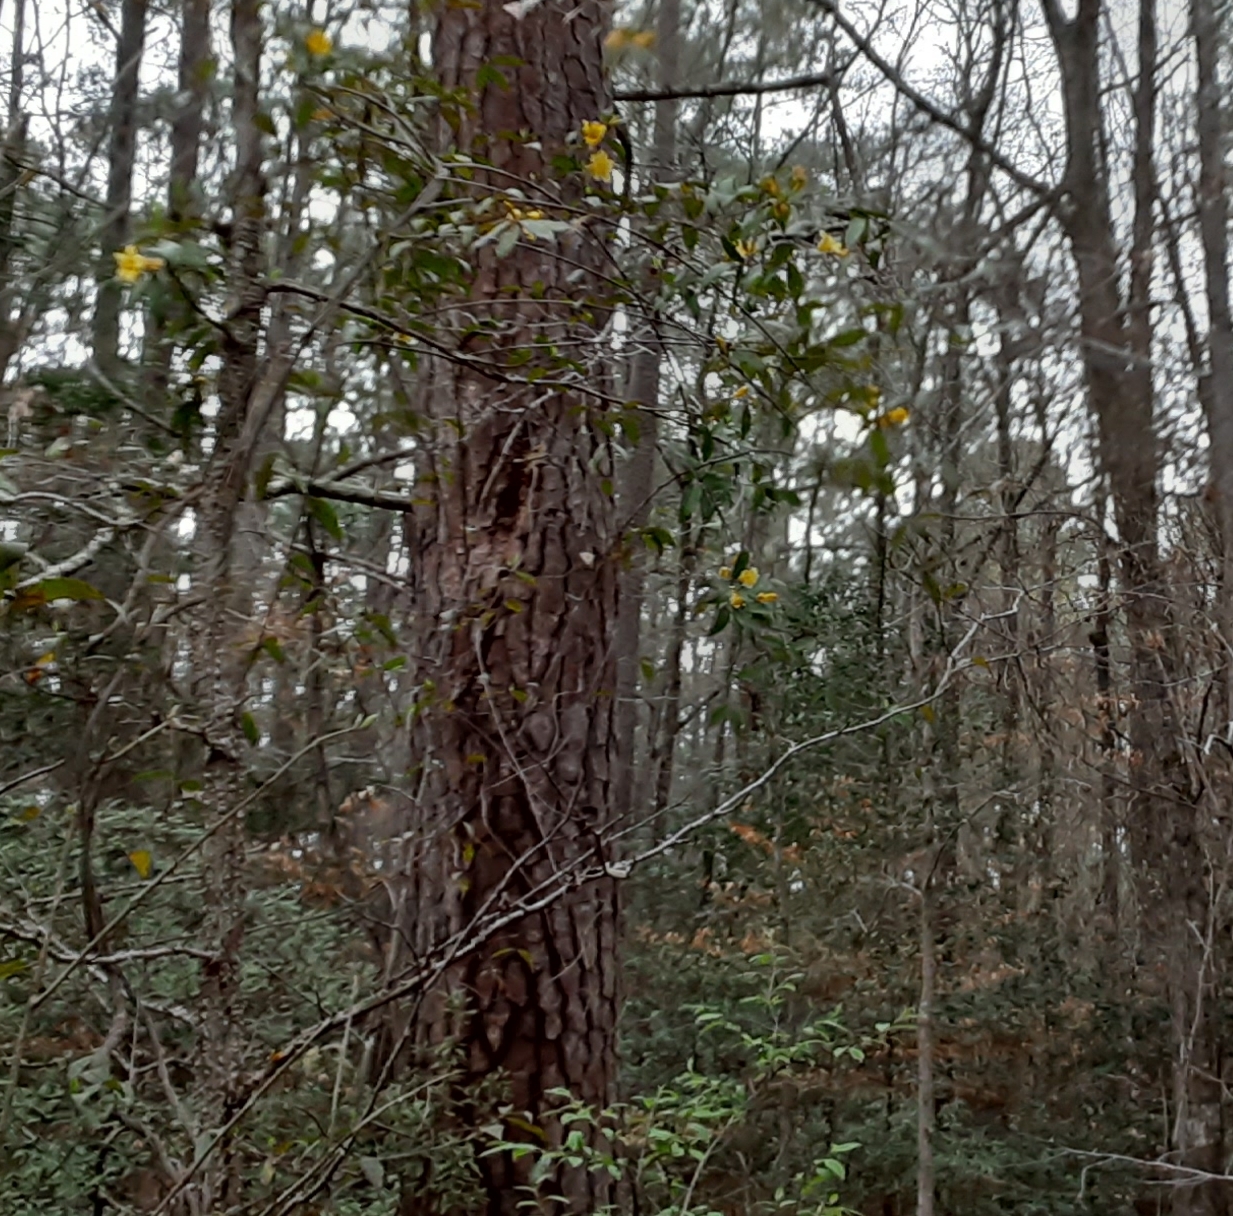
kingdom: Plantae
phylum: Tracheophyta
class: Magnoliopsida
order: Gentianales
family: Gelsemiaceae
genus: Gelsemium
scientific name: Gelsemium sempervirens
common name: Carolina-jasmine
